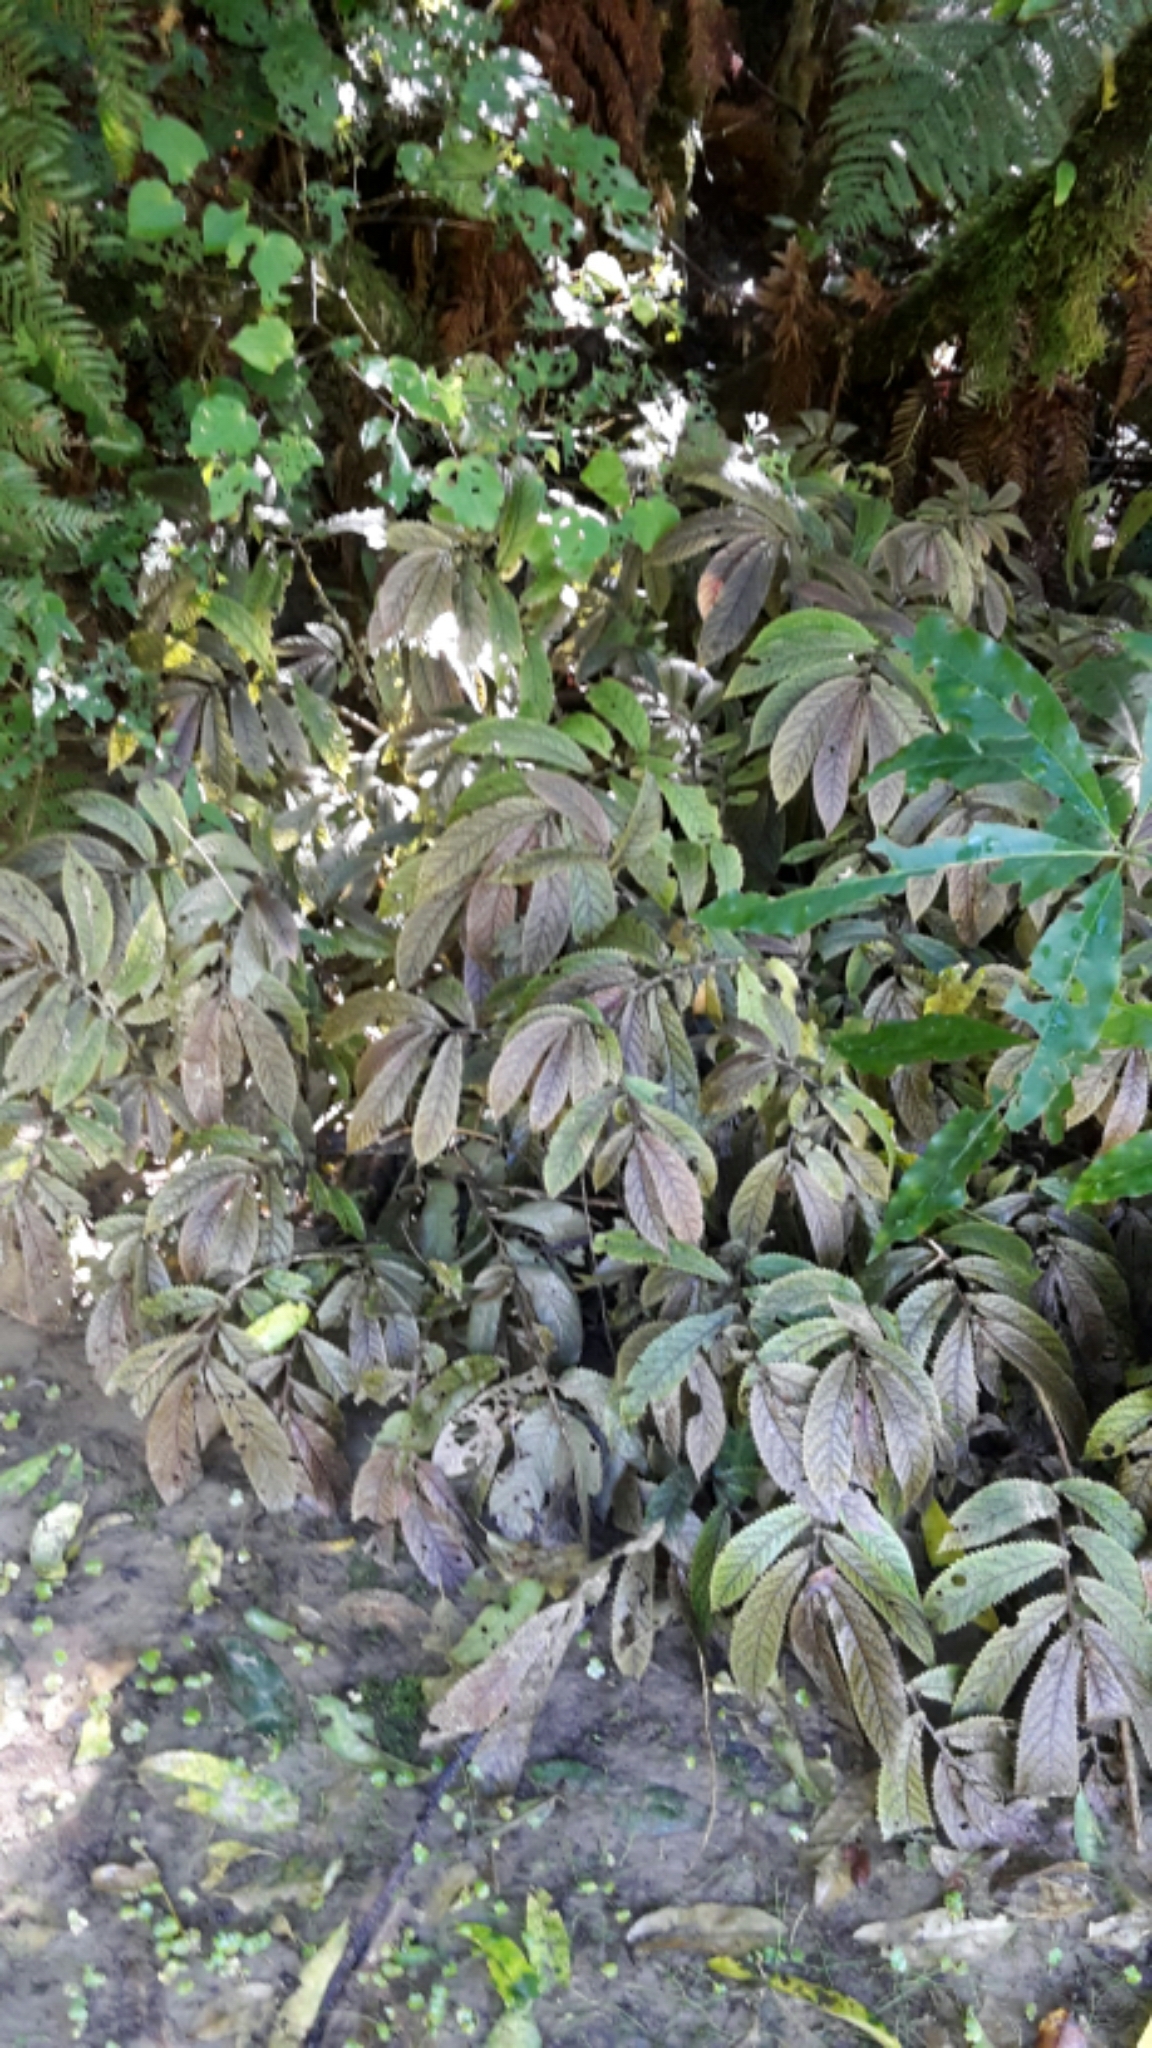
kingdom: Plantae
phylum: Tracheophyta
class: Magnoliopsida
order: Rosales
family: Urticaceae
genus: Elatostema
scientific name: Elatostema rugosum
